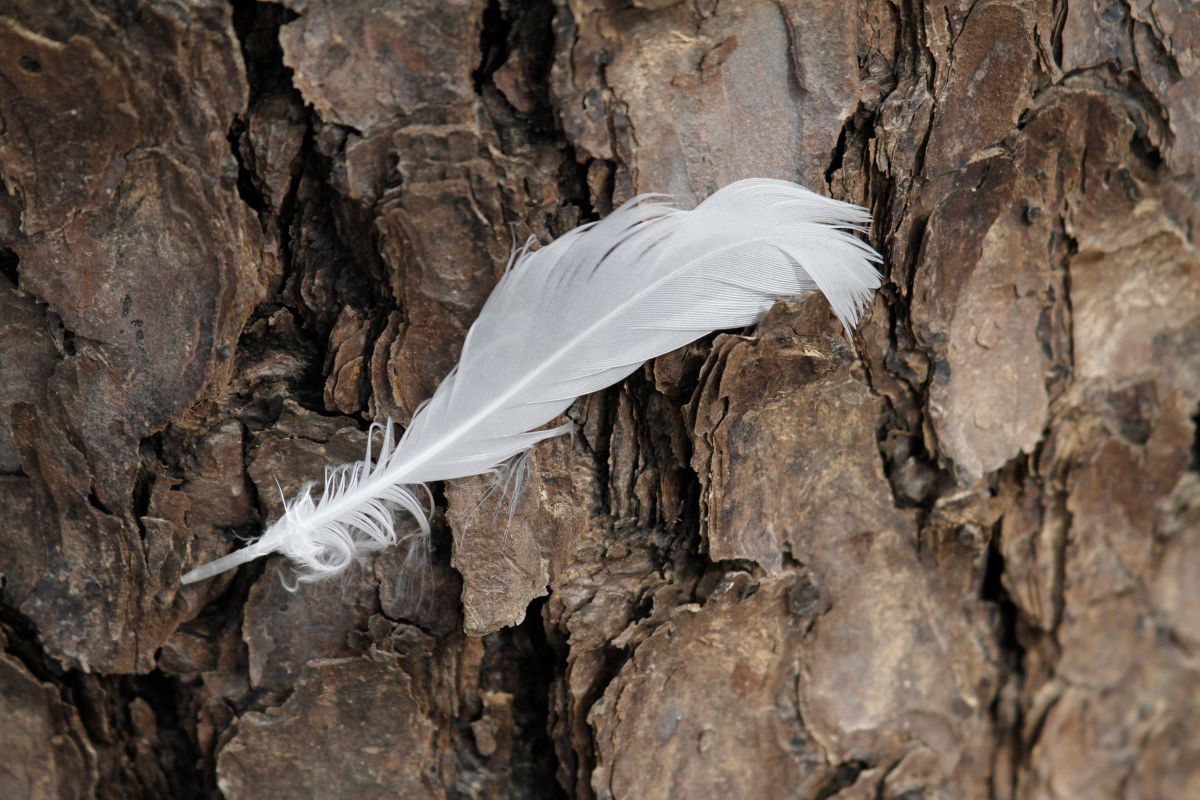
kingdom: Animalia
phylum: Chordata
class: Aves
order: Charadriiformes
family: Laridae
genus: Larus
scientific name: Larus delawarensis
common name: Ring-billed gull
